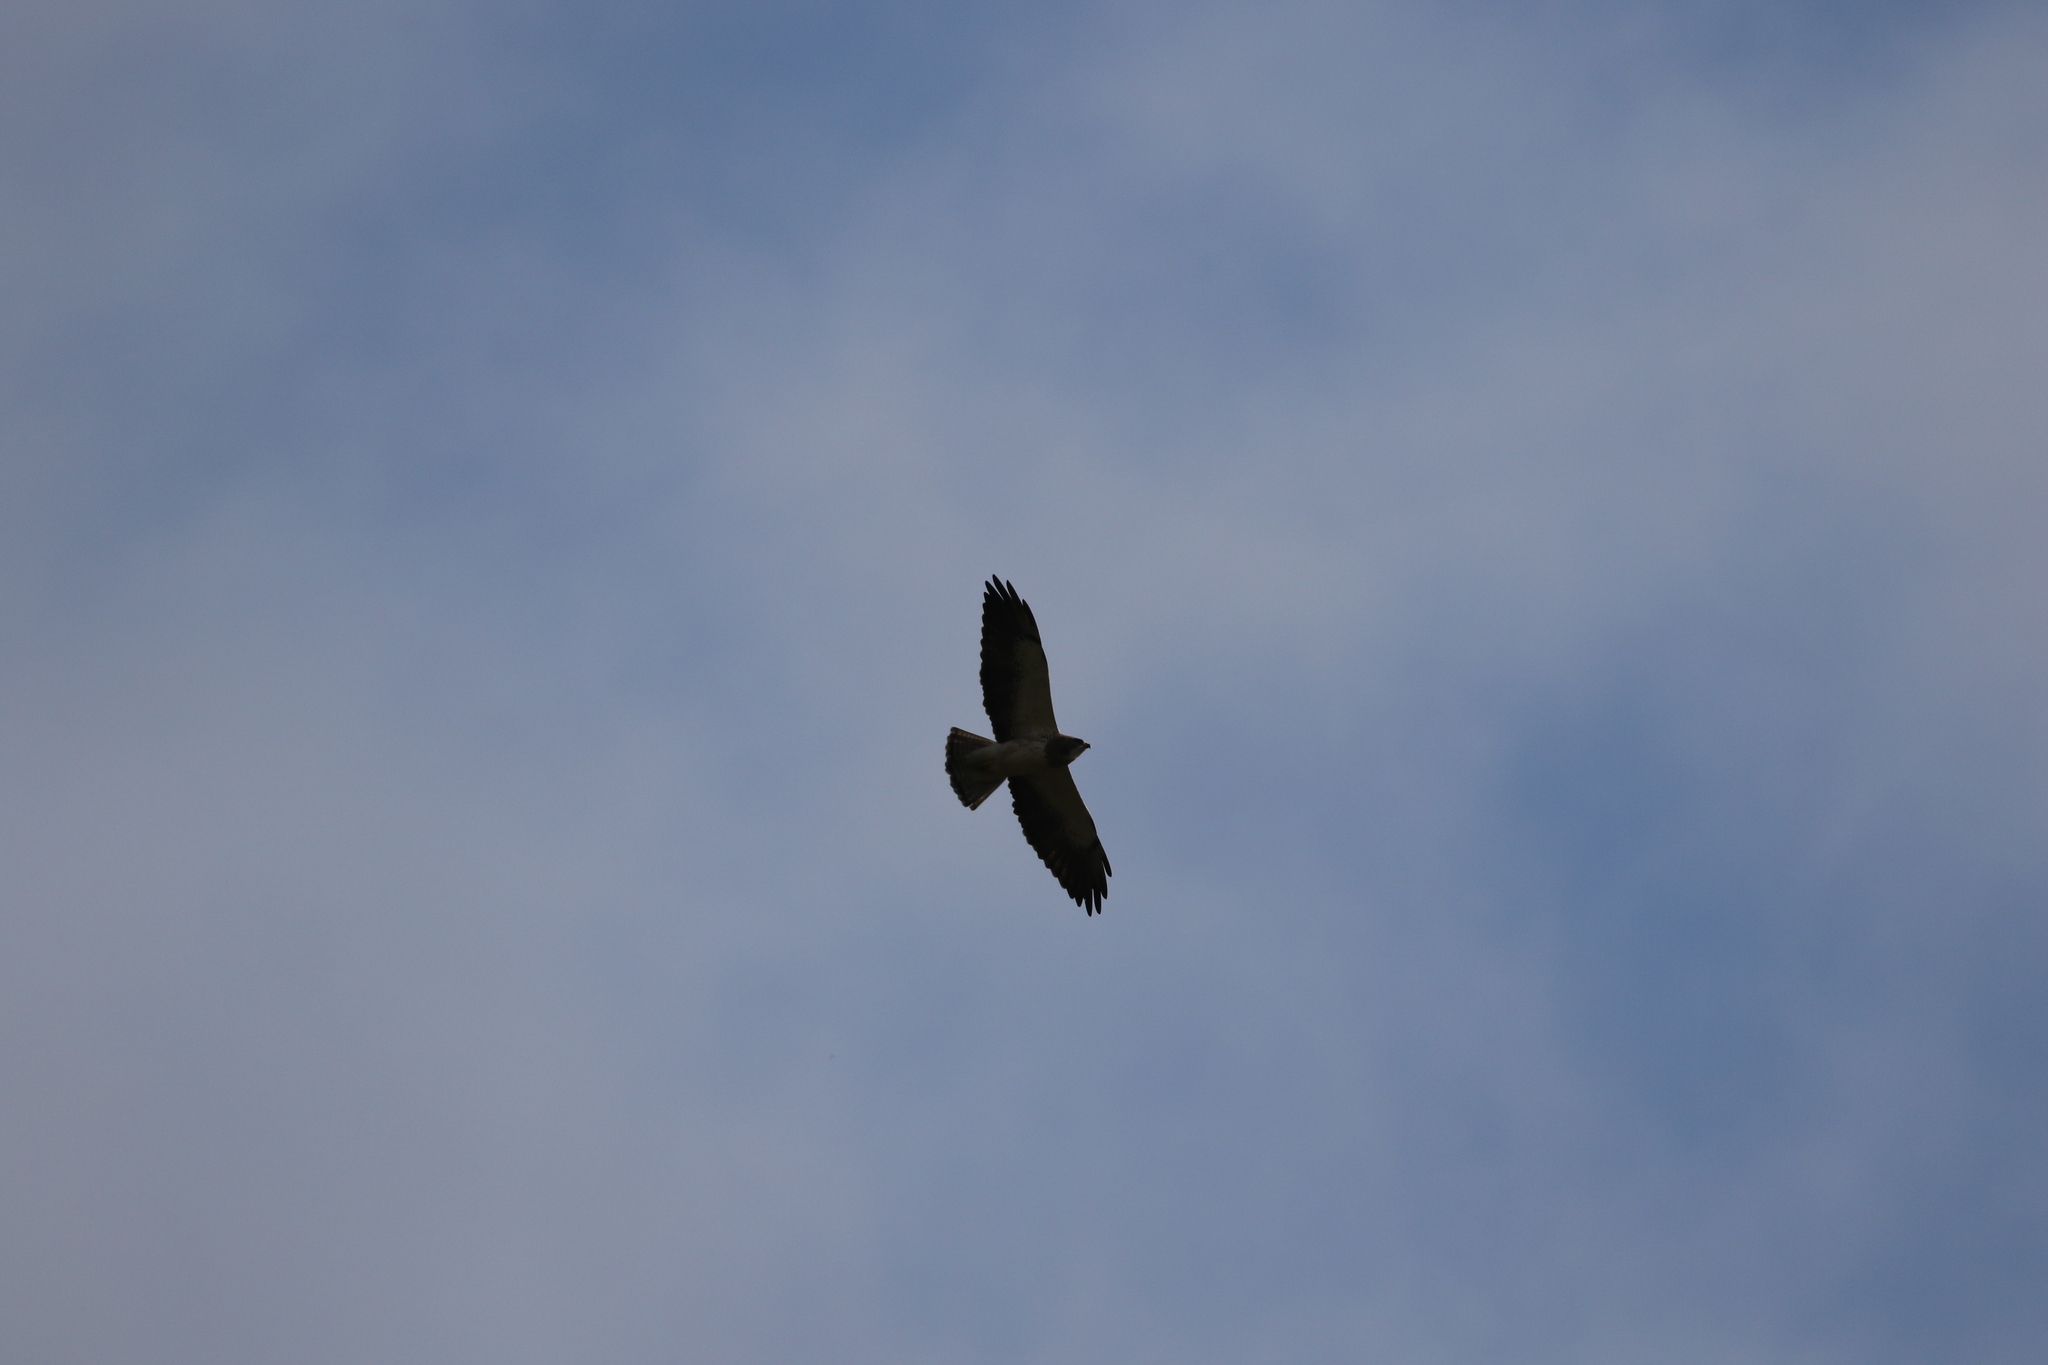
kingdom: Animalia
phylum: Chordata
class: Aves
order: Accipitriformes
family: Accipitridae
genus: Buteo
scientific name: Buteo swainsoni
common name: Swainson's hawk
